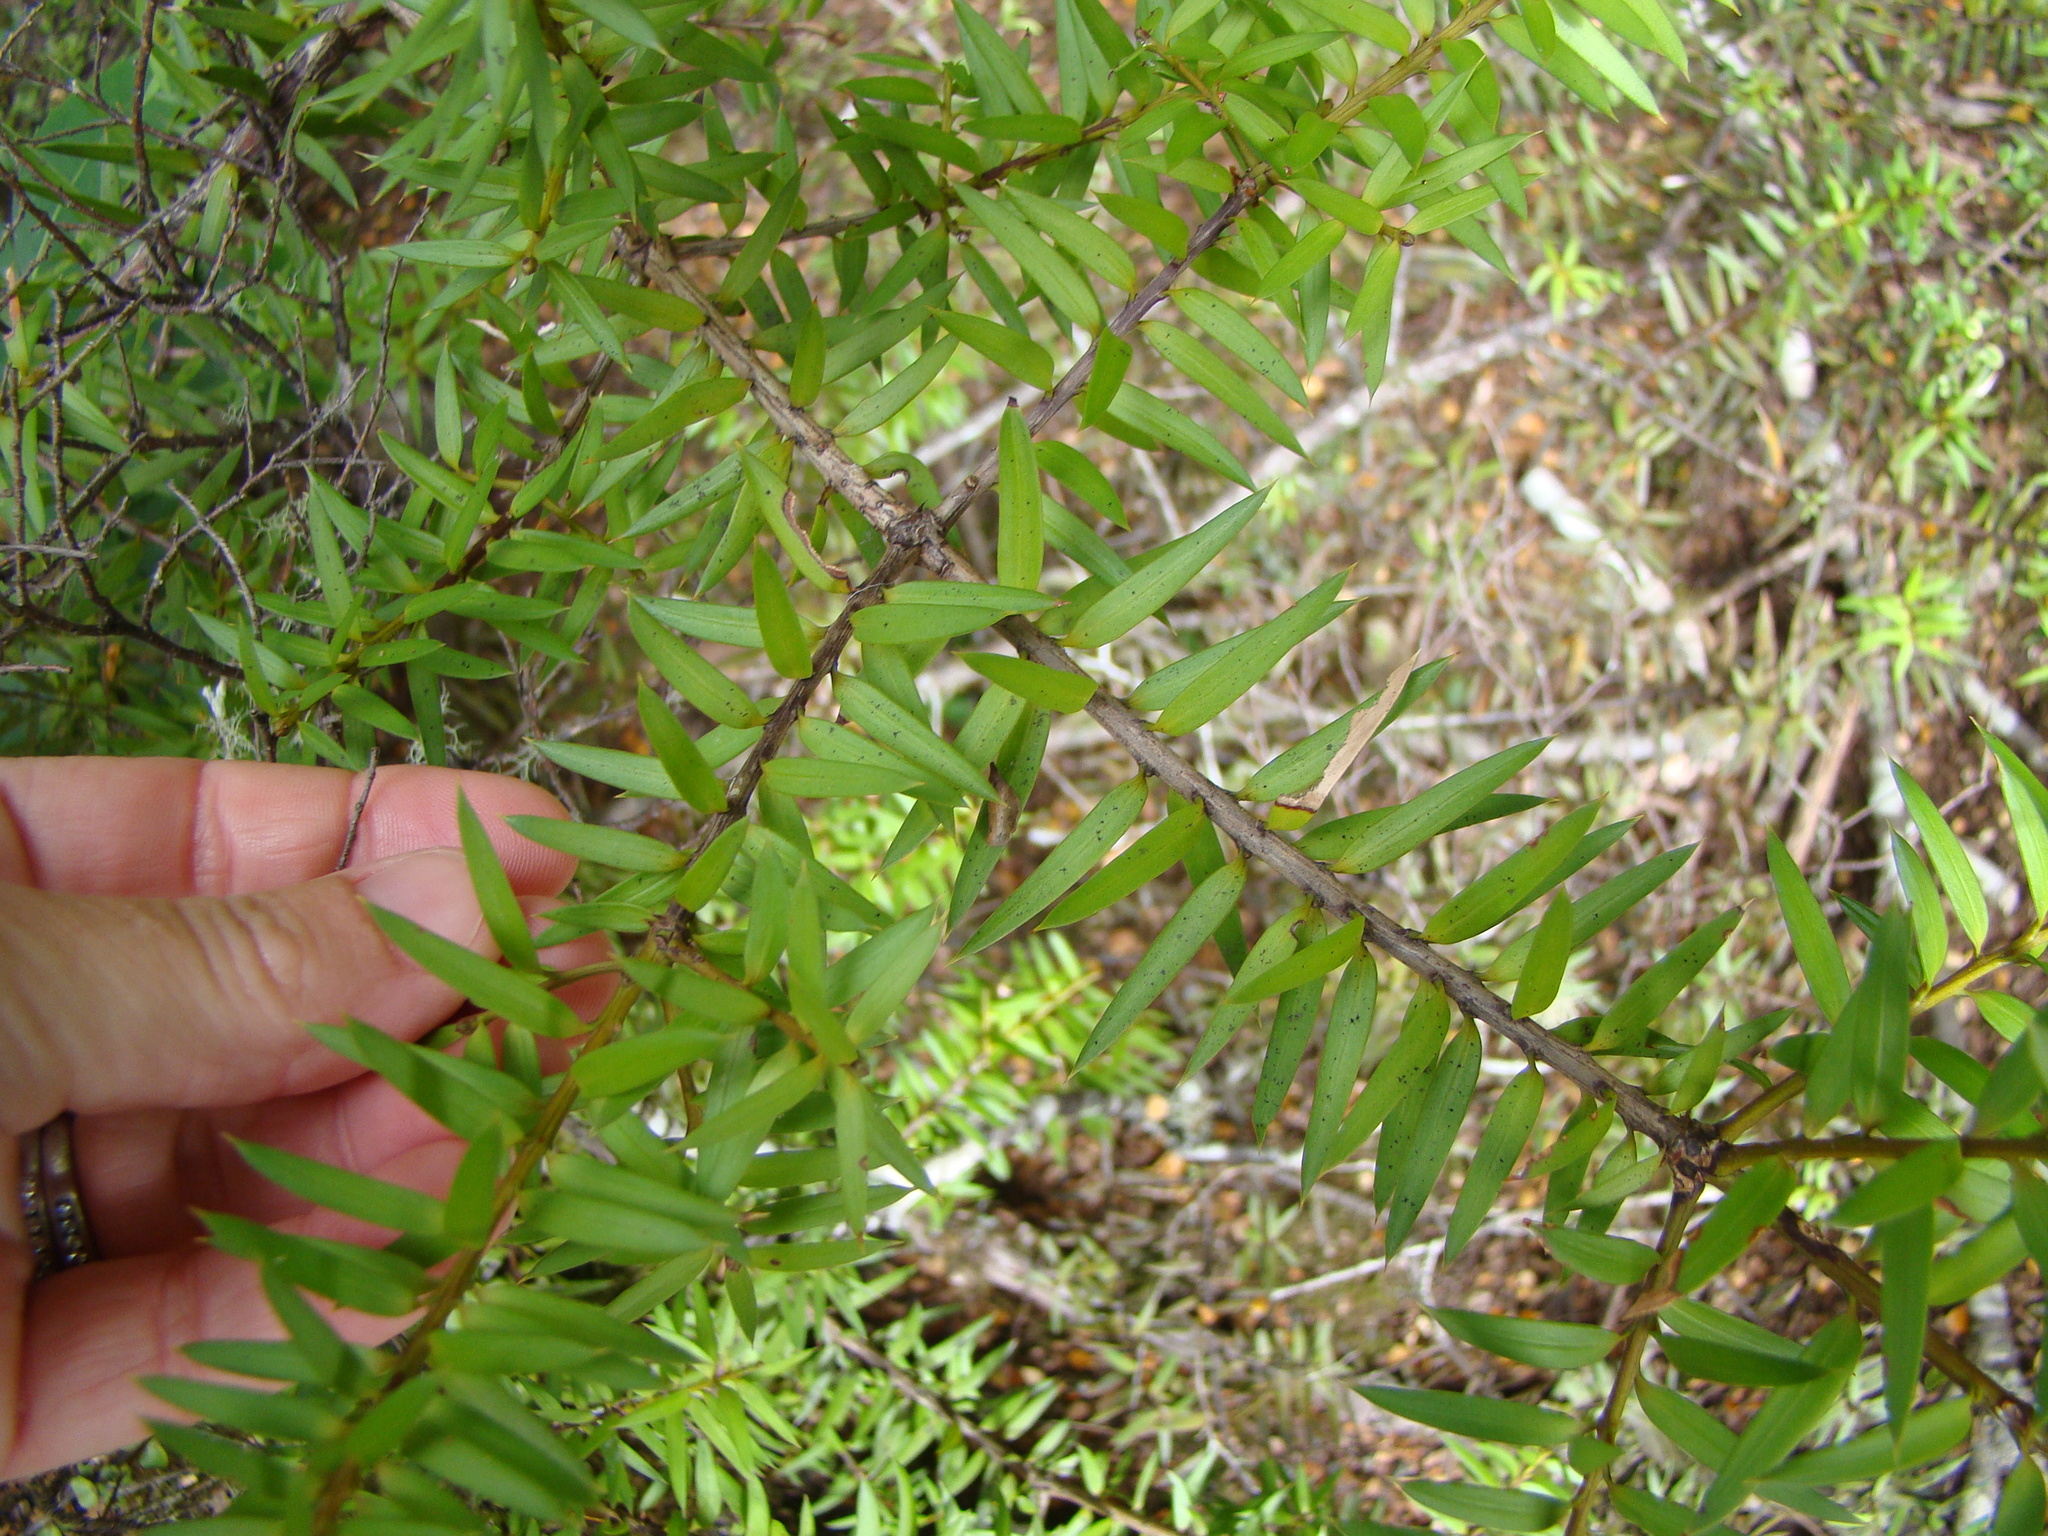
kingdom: Plantae
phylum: Tracheophyta
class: Pinopsida
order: Pinales
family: Podocarpaceae
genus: Podocarpus
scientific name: Podocarpus laetus
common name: Hall's totara
